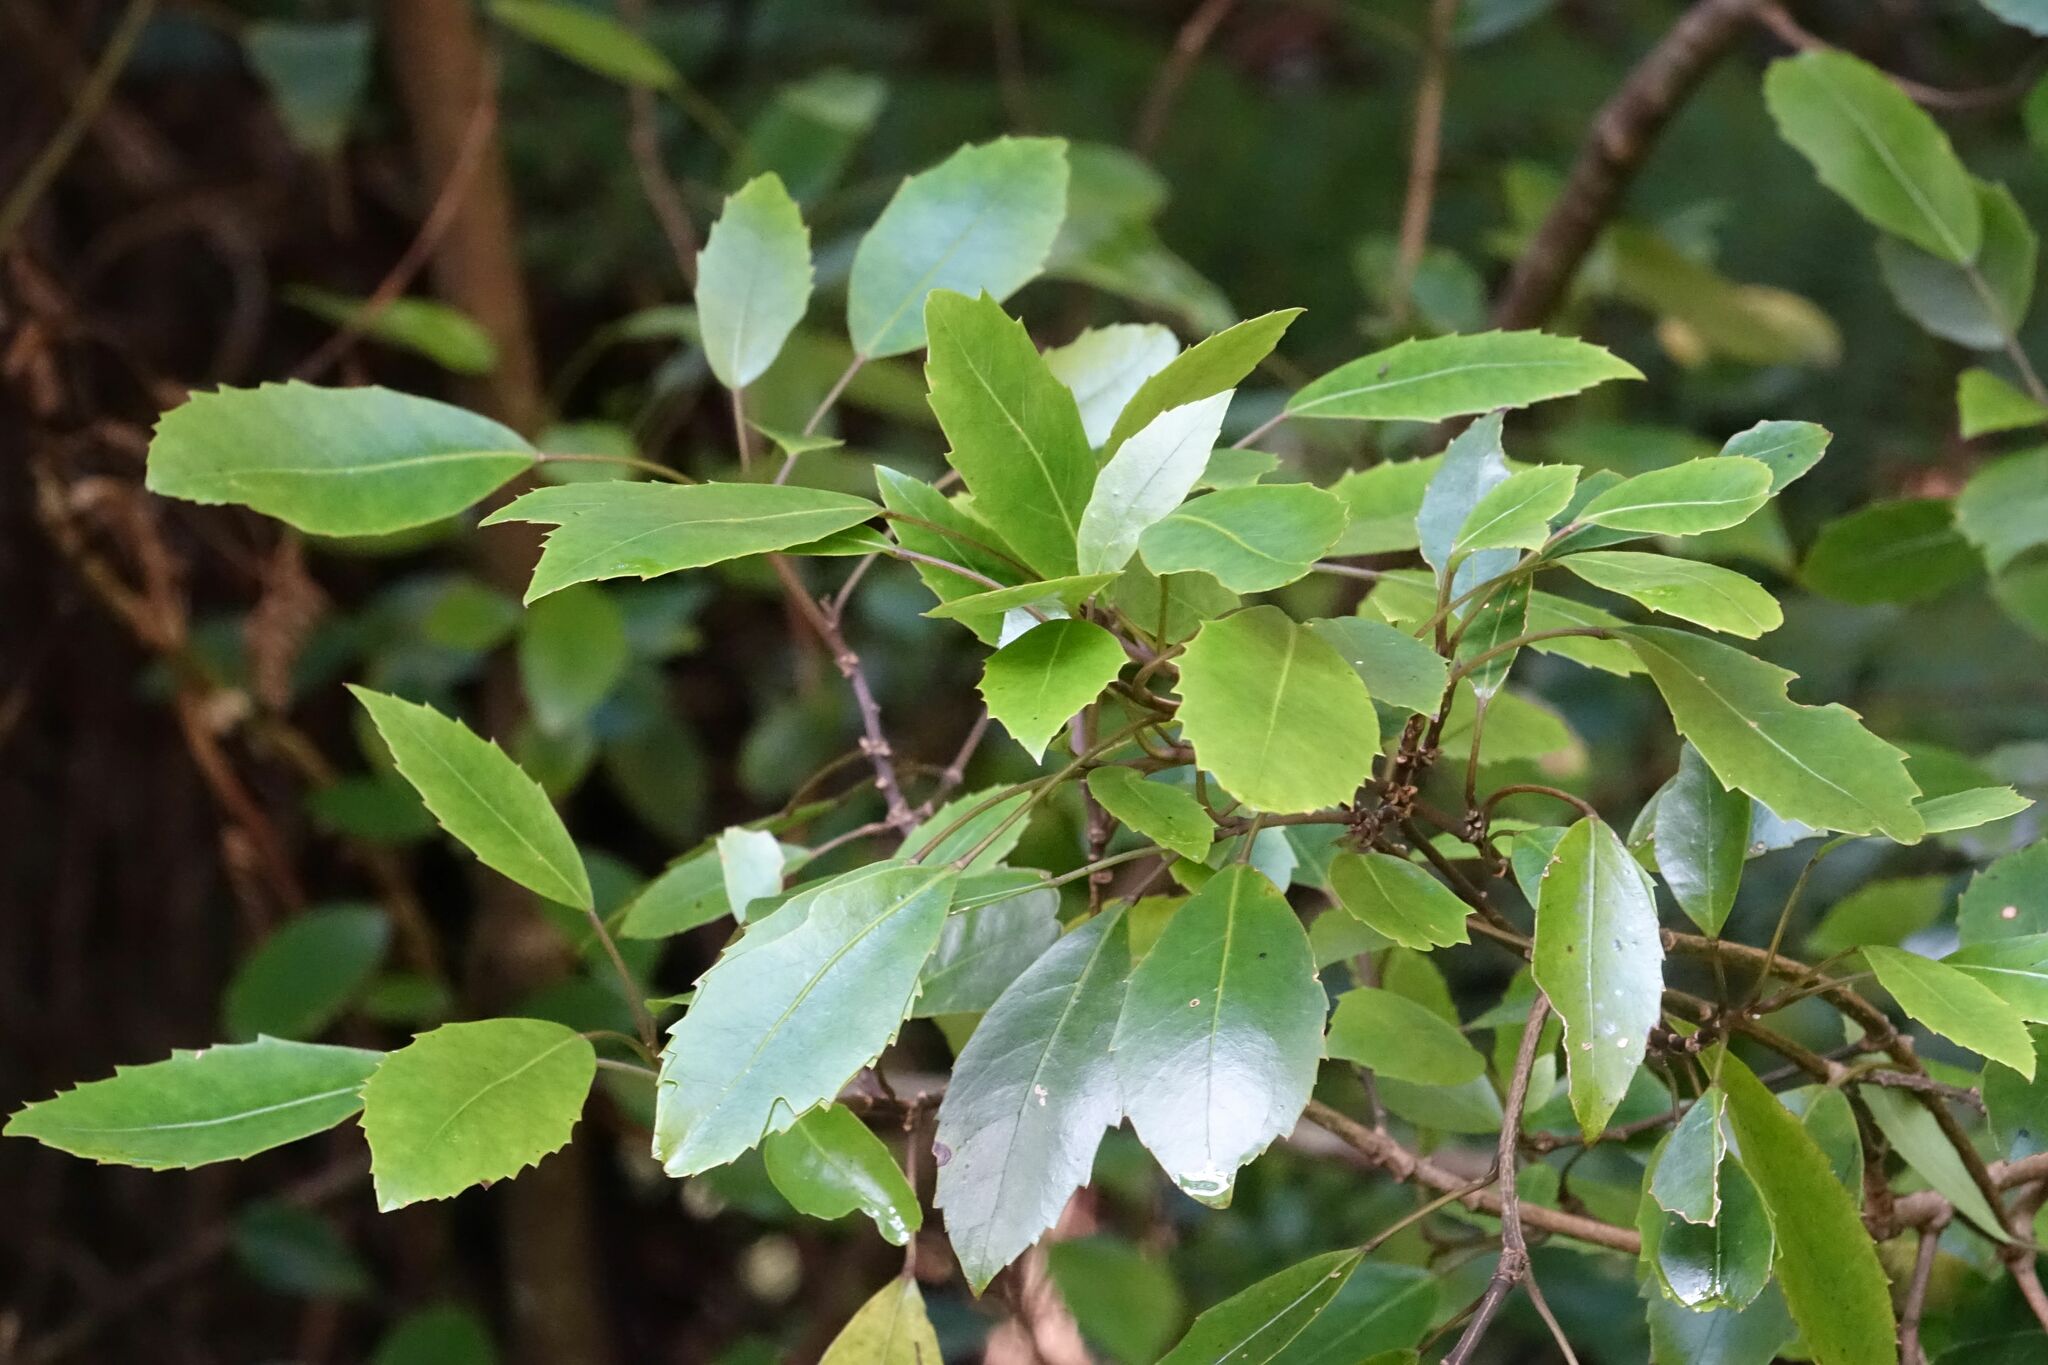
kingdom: Plantae
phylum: Tracheophyta
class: Magnoliopsida
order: Apiales
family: Araliaceae
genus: Raukaua
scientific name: Raukaua simplex
